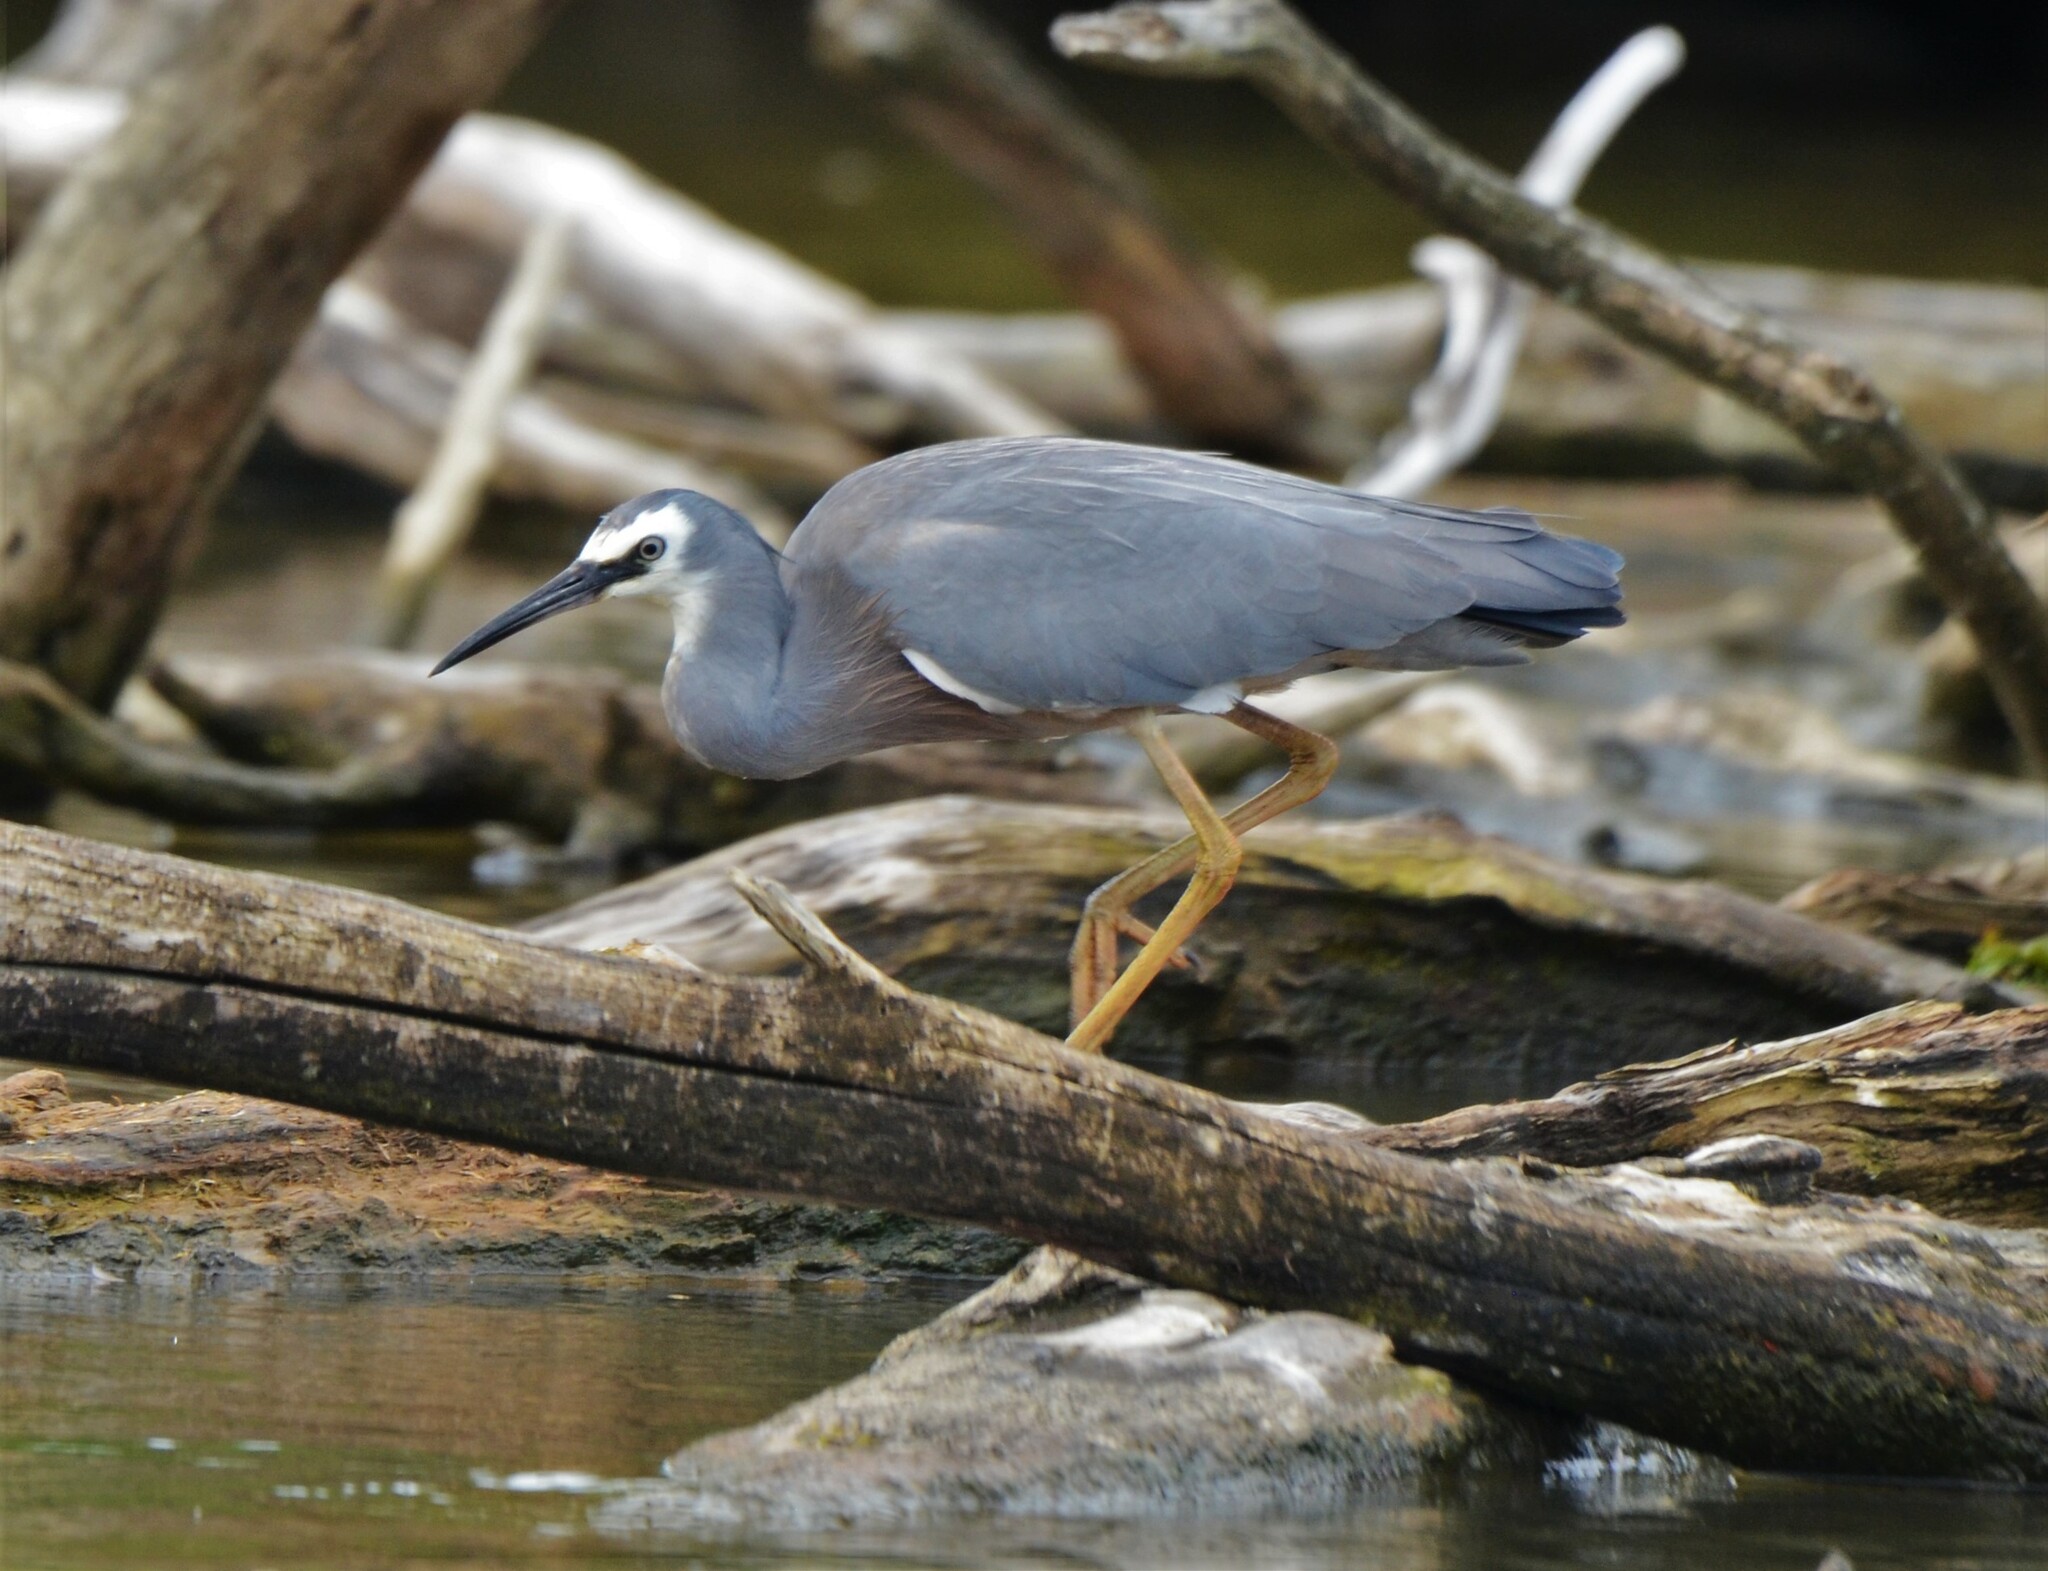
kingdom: Animalia
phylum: Chordata
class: Aves
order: Pelecaniformes
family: Ardeidae
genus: Egretta
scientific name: Egretta novaehollandiae
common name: White-faced heron
